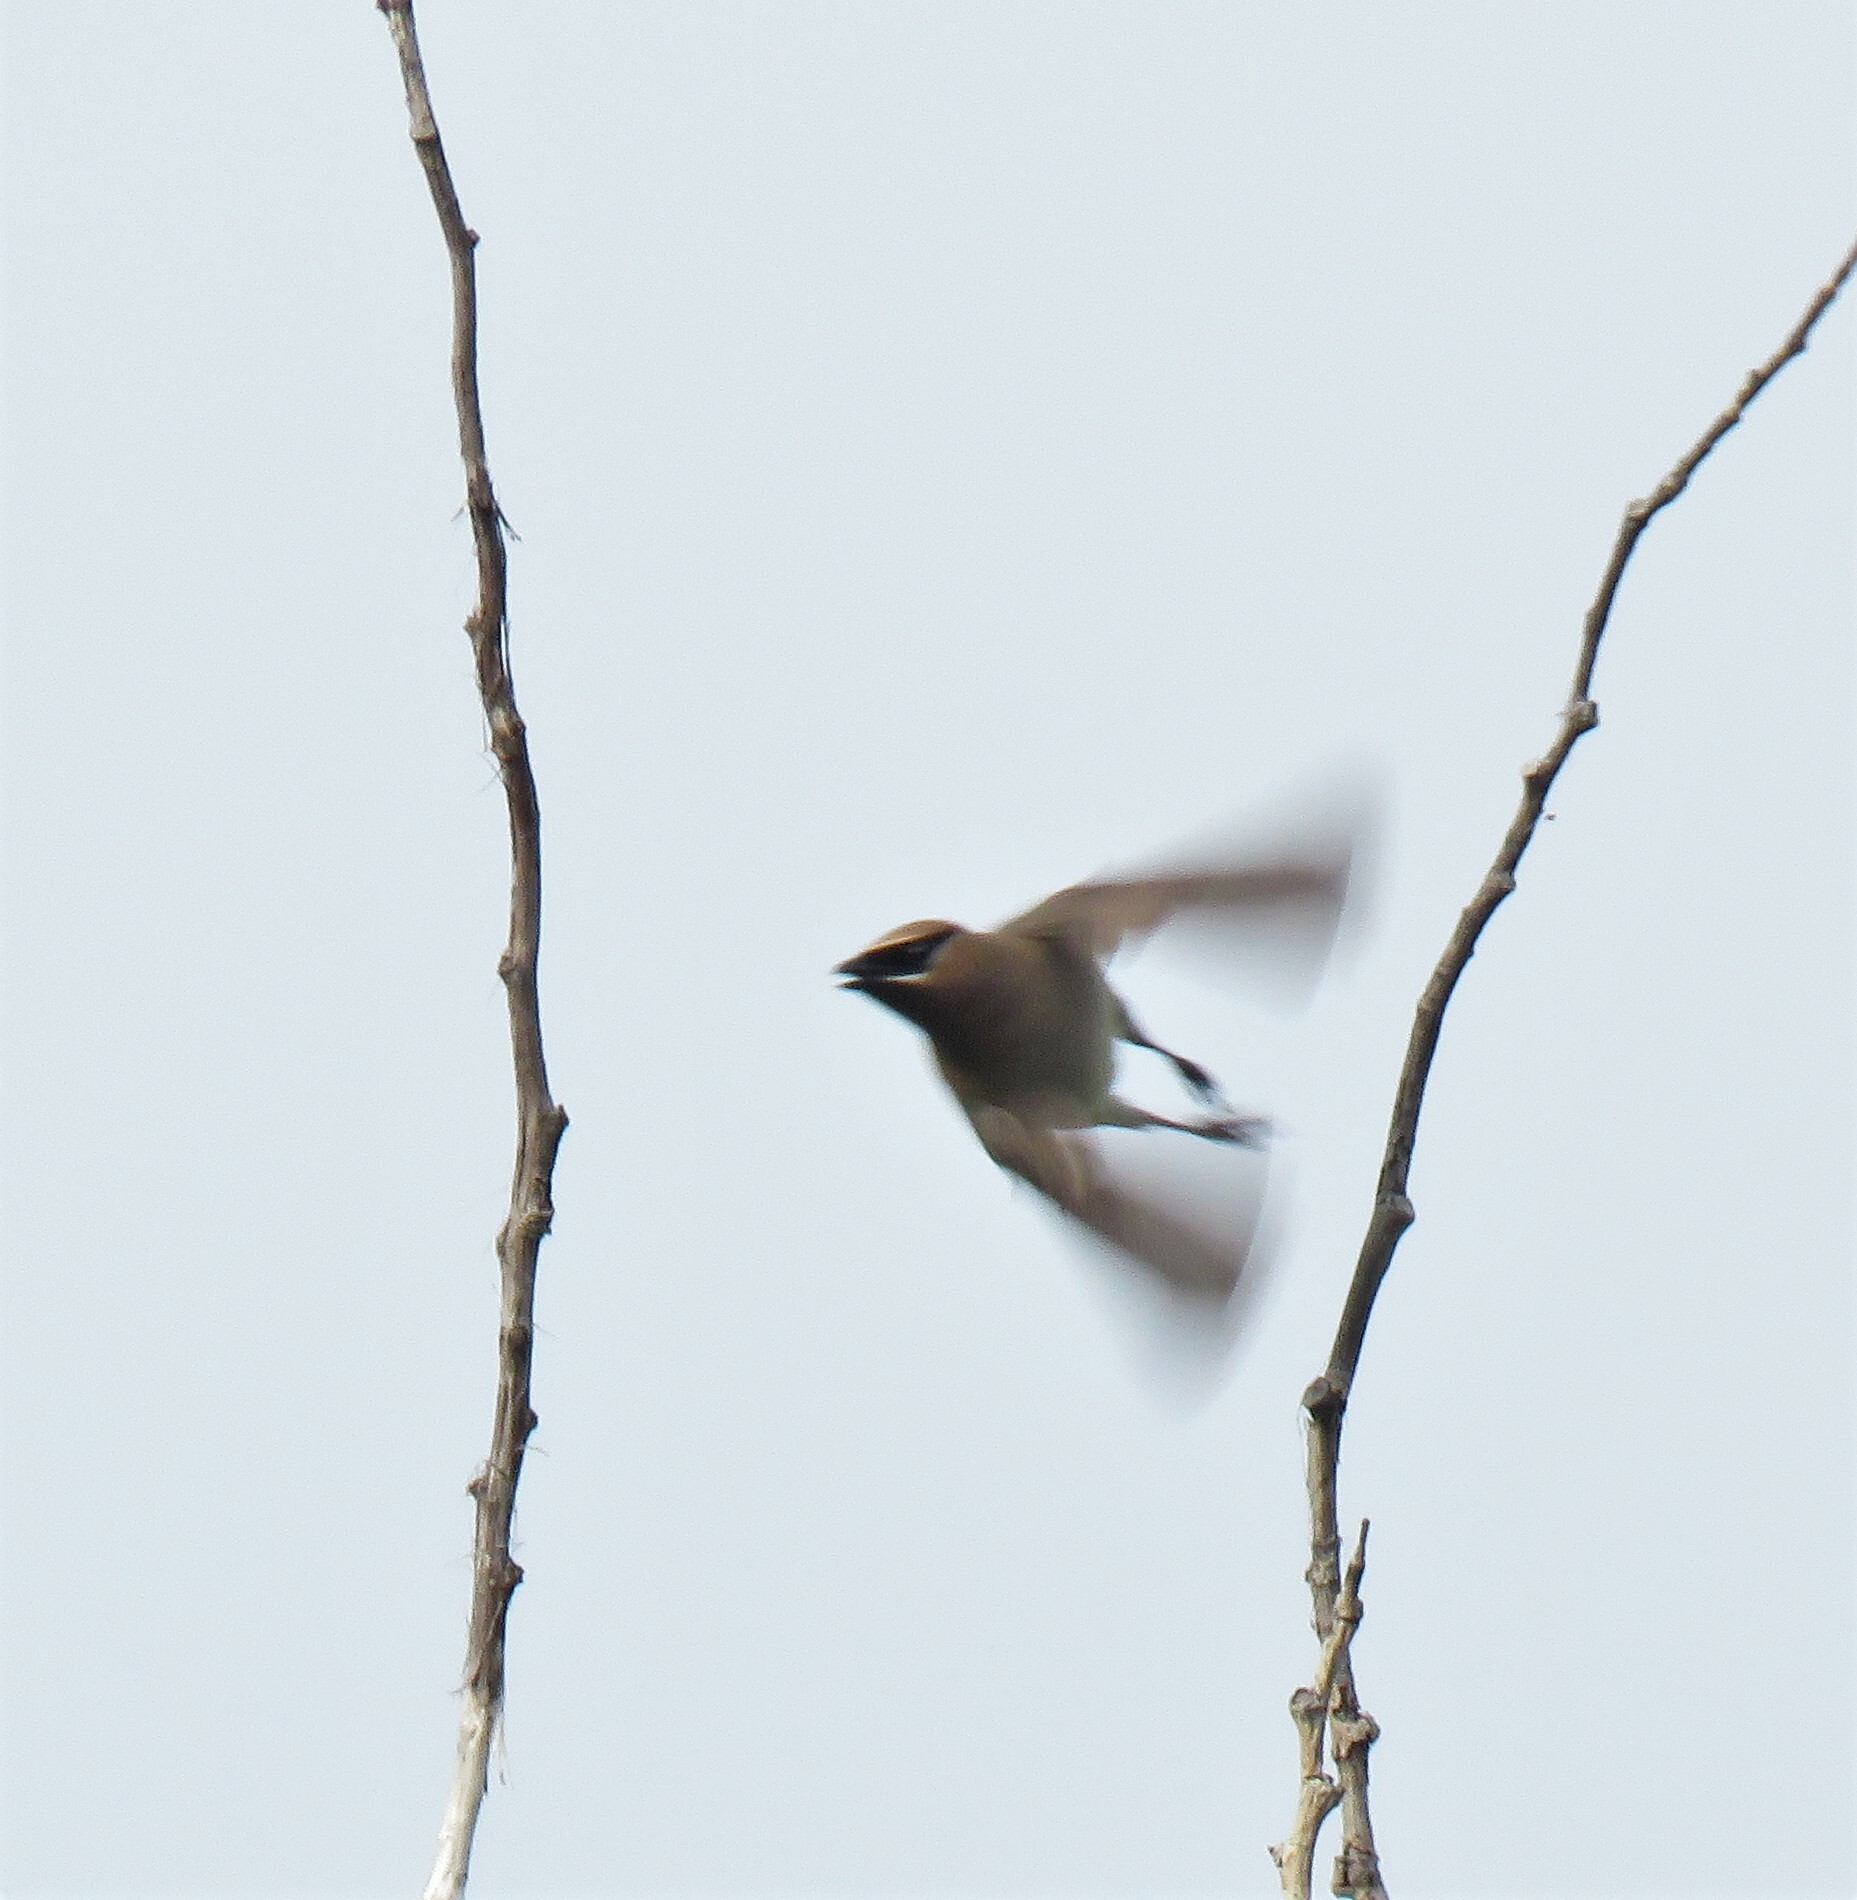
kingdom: Animalia
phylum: Chordata
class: Aves
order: Passeriformes
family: Bombycillidae
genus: Bombycilla
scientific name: Bombycilla garrulus
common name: Bohemian waxwing
